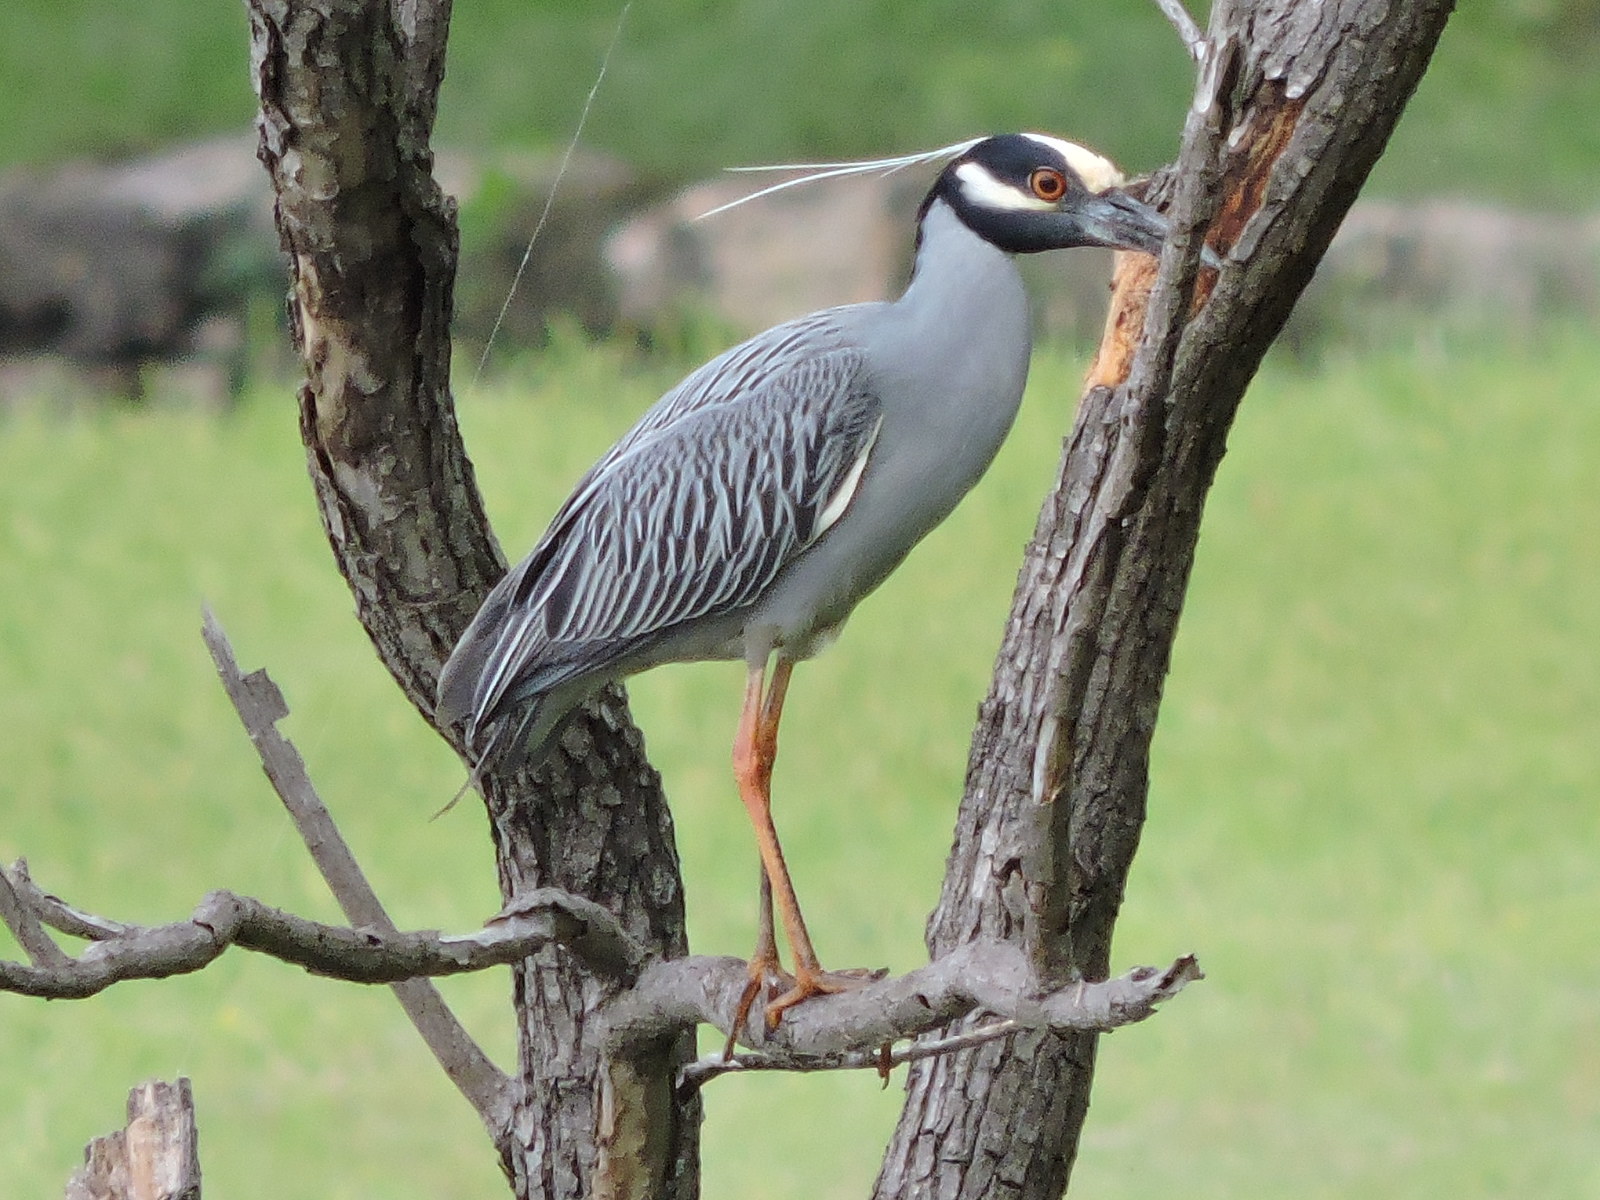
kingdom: Animalia
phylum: Chordata
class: Aves
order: Pelecaniformes
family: Ardeidae
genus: Nyctanassa
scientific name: Nyctanassa violacea
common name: Yellow-crowned night heron
